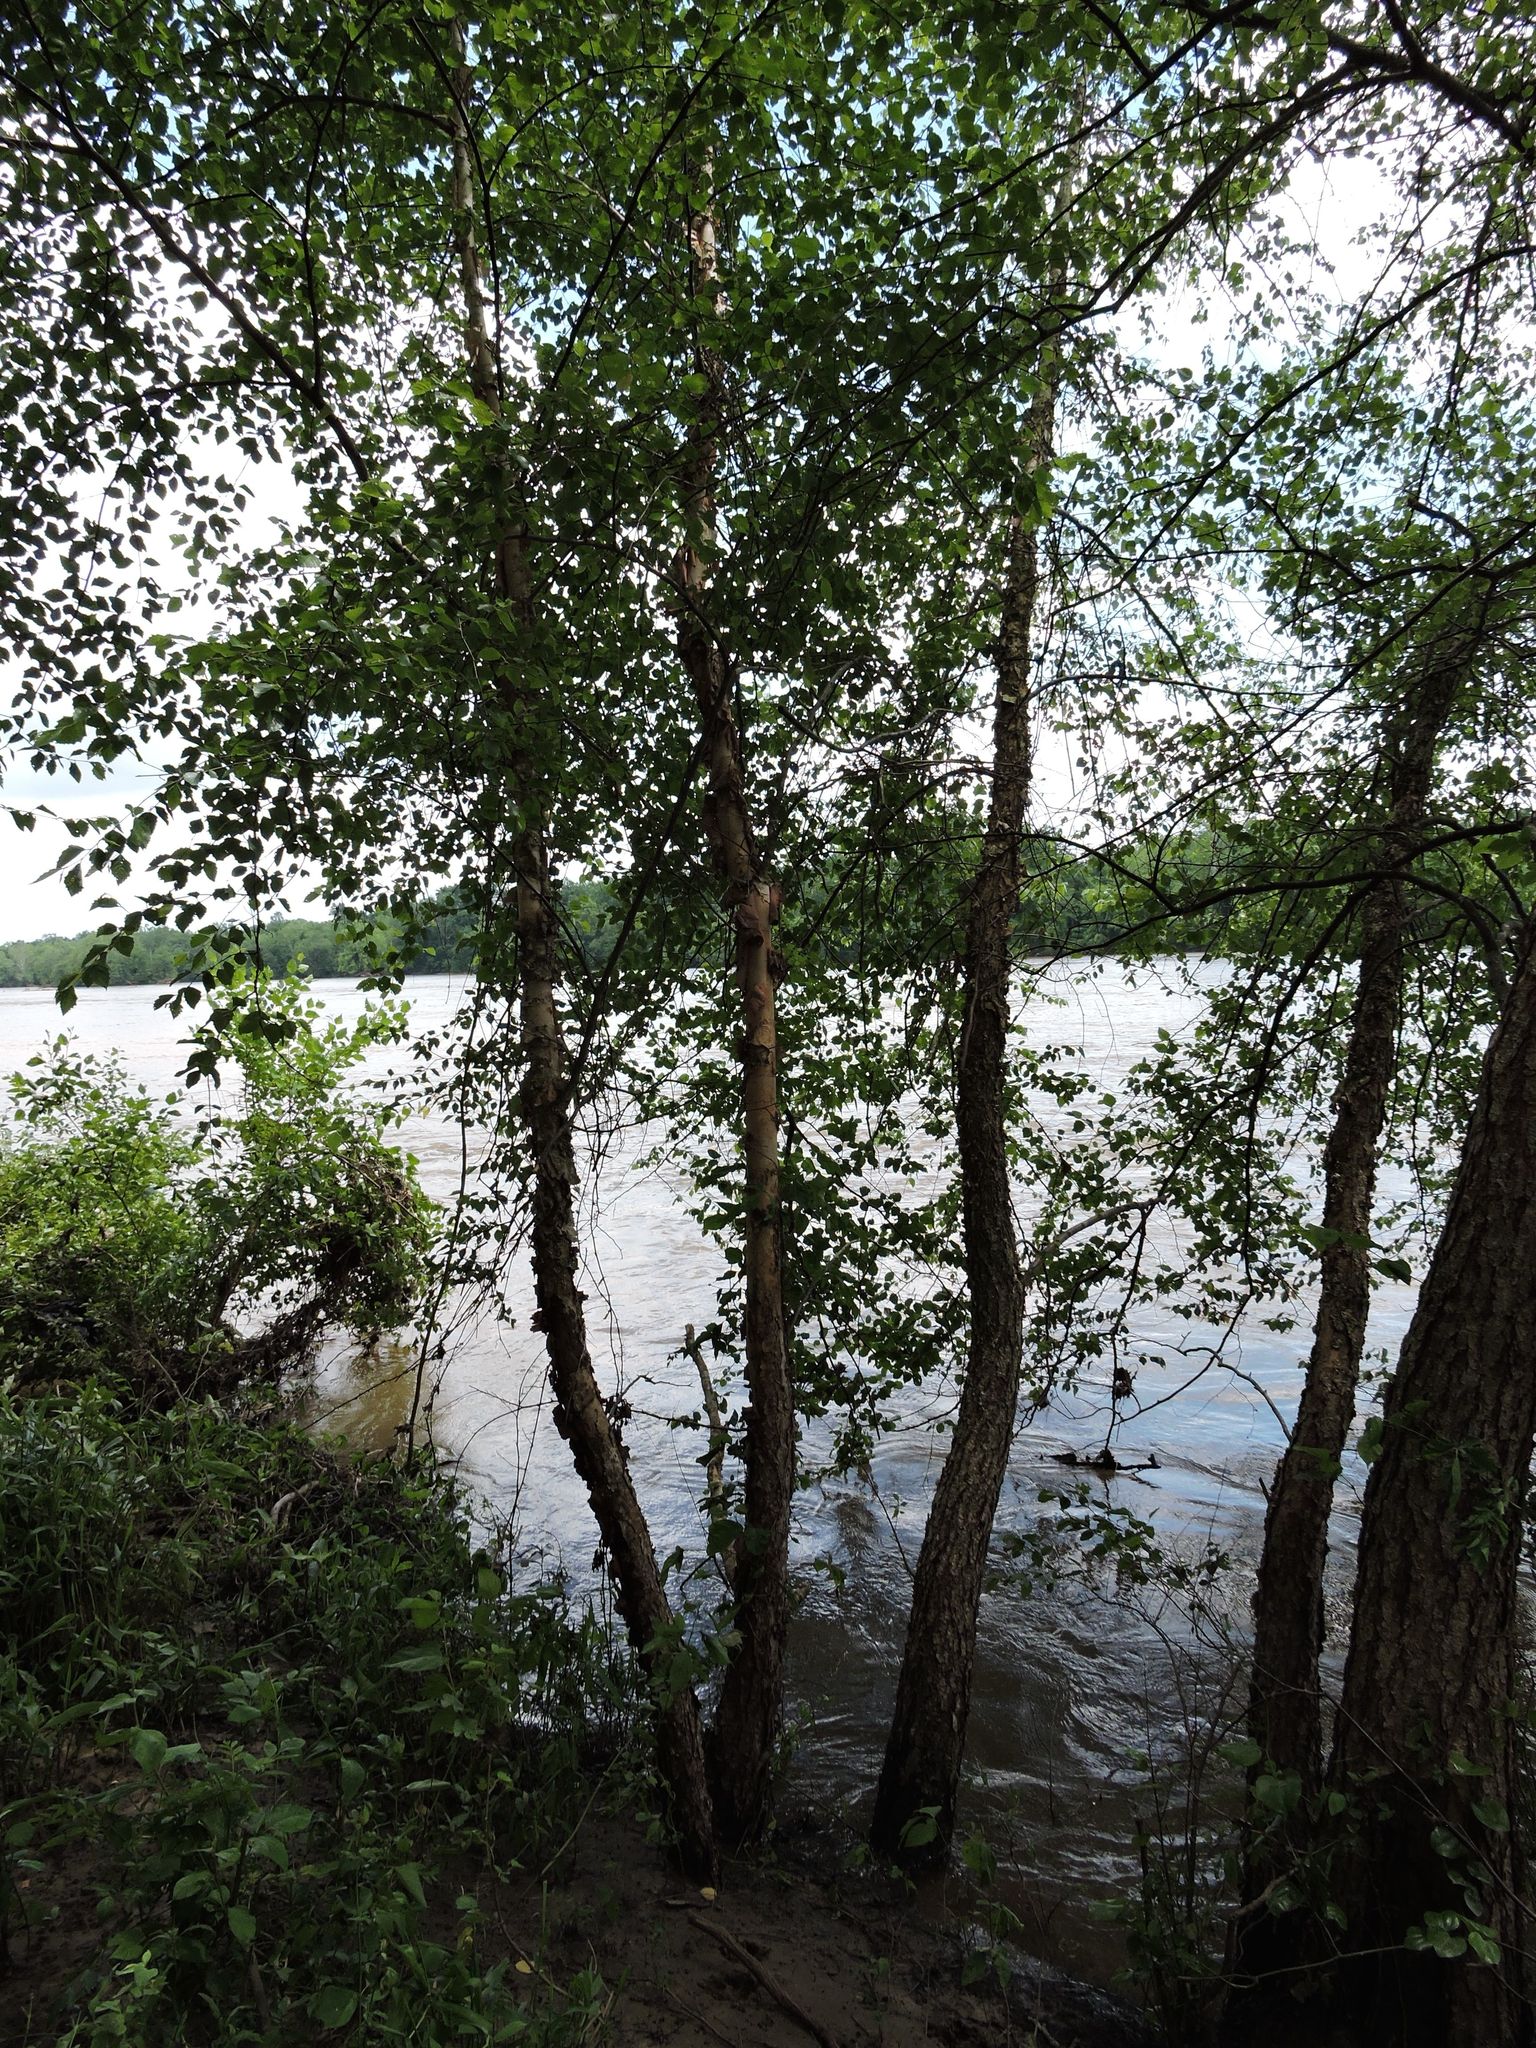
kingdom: Plantae
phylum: Tracheophyta
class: Magnoliopsida
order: Fagales
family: Betulaceae
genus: Betula
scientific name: Betula nigra
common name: Black birch
